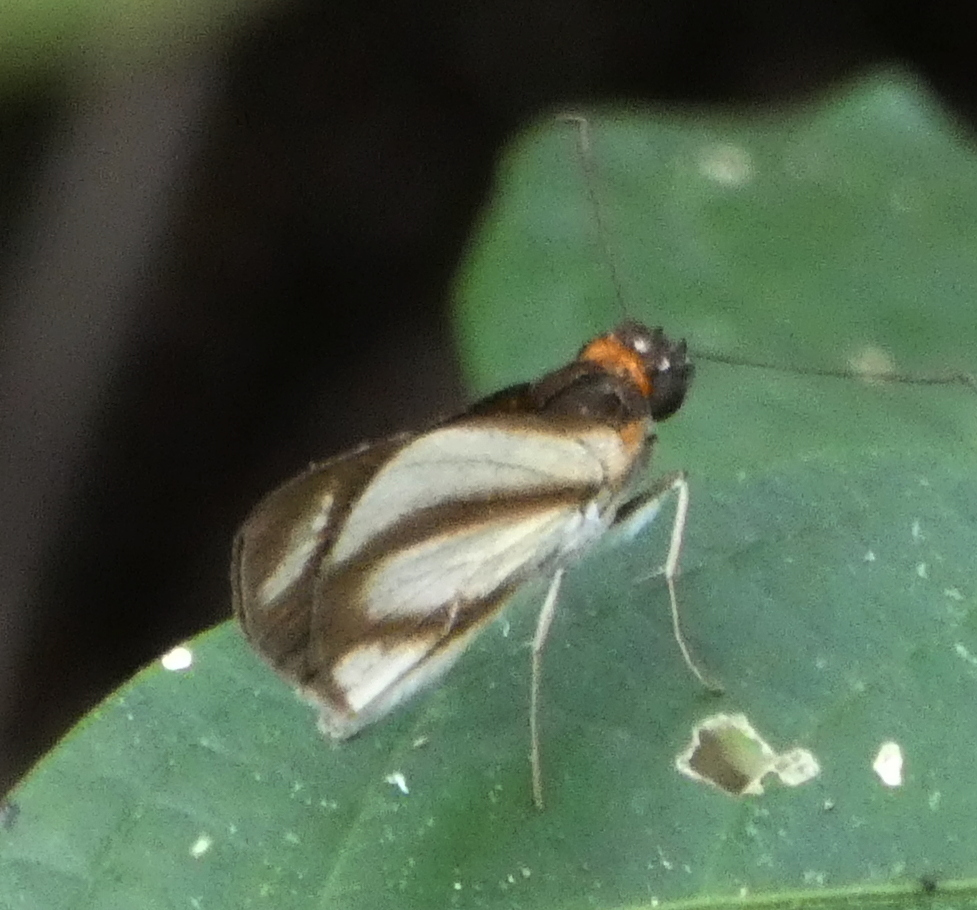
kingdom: Animalia
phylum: Arthropoda
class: Insecta
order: Lepidoptera
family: Hesperiidae
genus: Vettius
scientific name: Vettius marcus
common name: Marcus skipper
